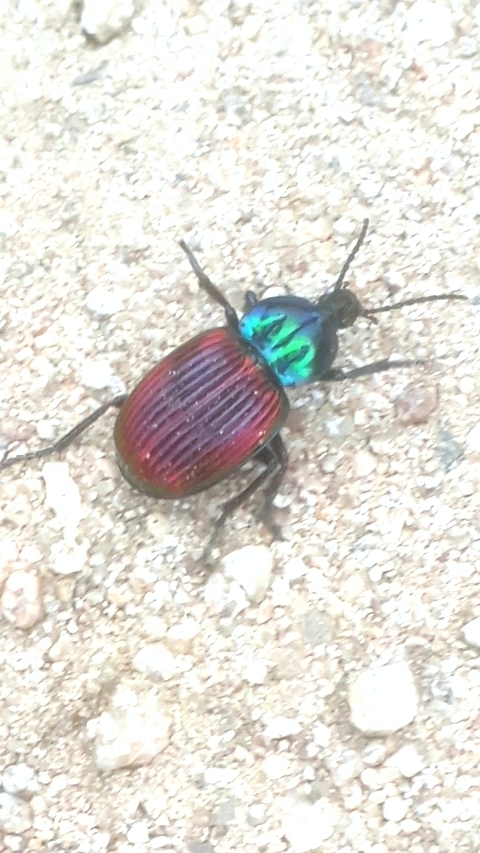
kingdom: Animalia
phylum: Arthropoda
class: Insecta
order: Coleoptera
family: Carabidae
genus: Brachygnathus
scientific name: Brachygnathus festivus
